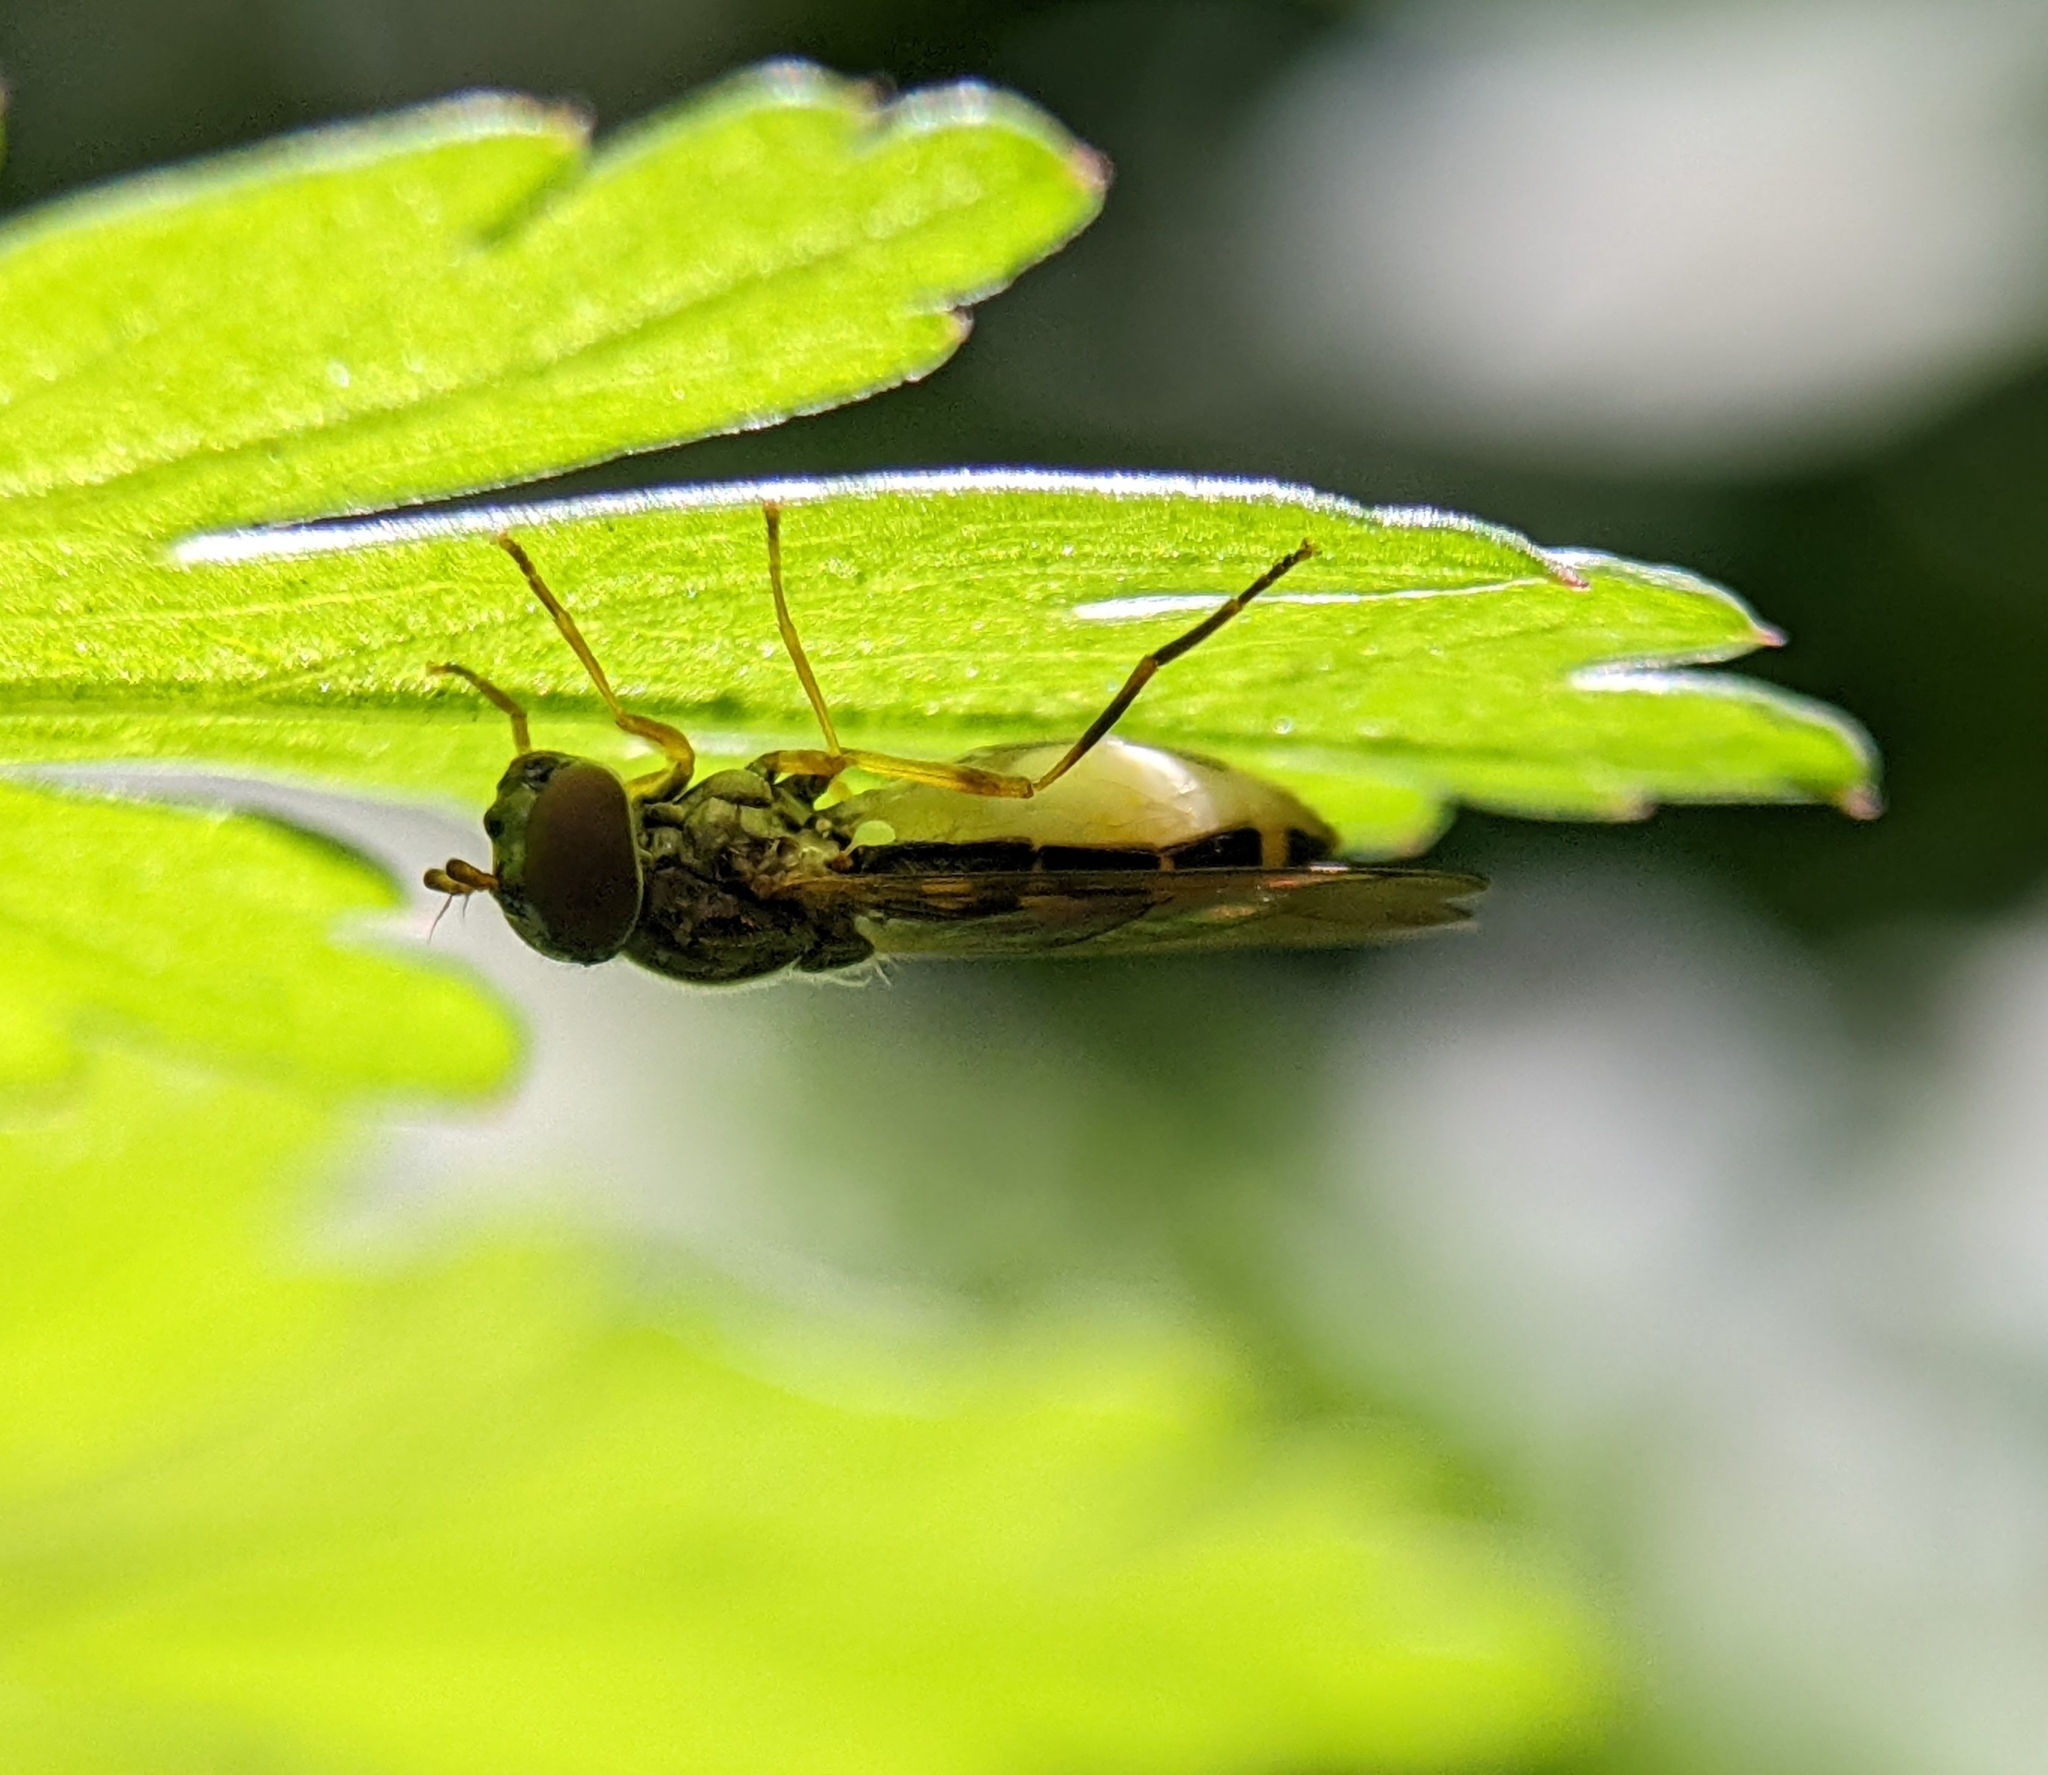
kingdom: Animalia
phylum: Arthropoda
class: Insecta
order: Diptera
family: Syrphidae
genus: Melanostoma
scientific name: Melanostoma
